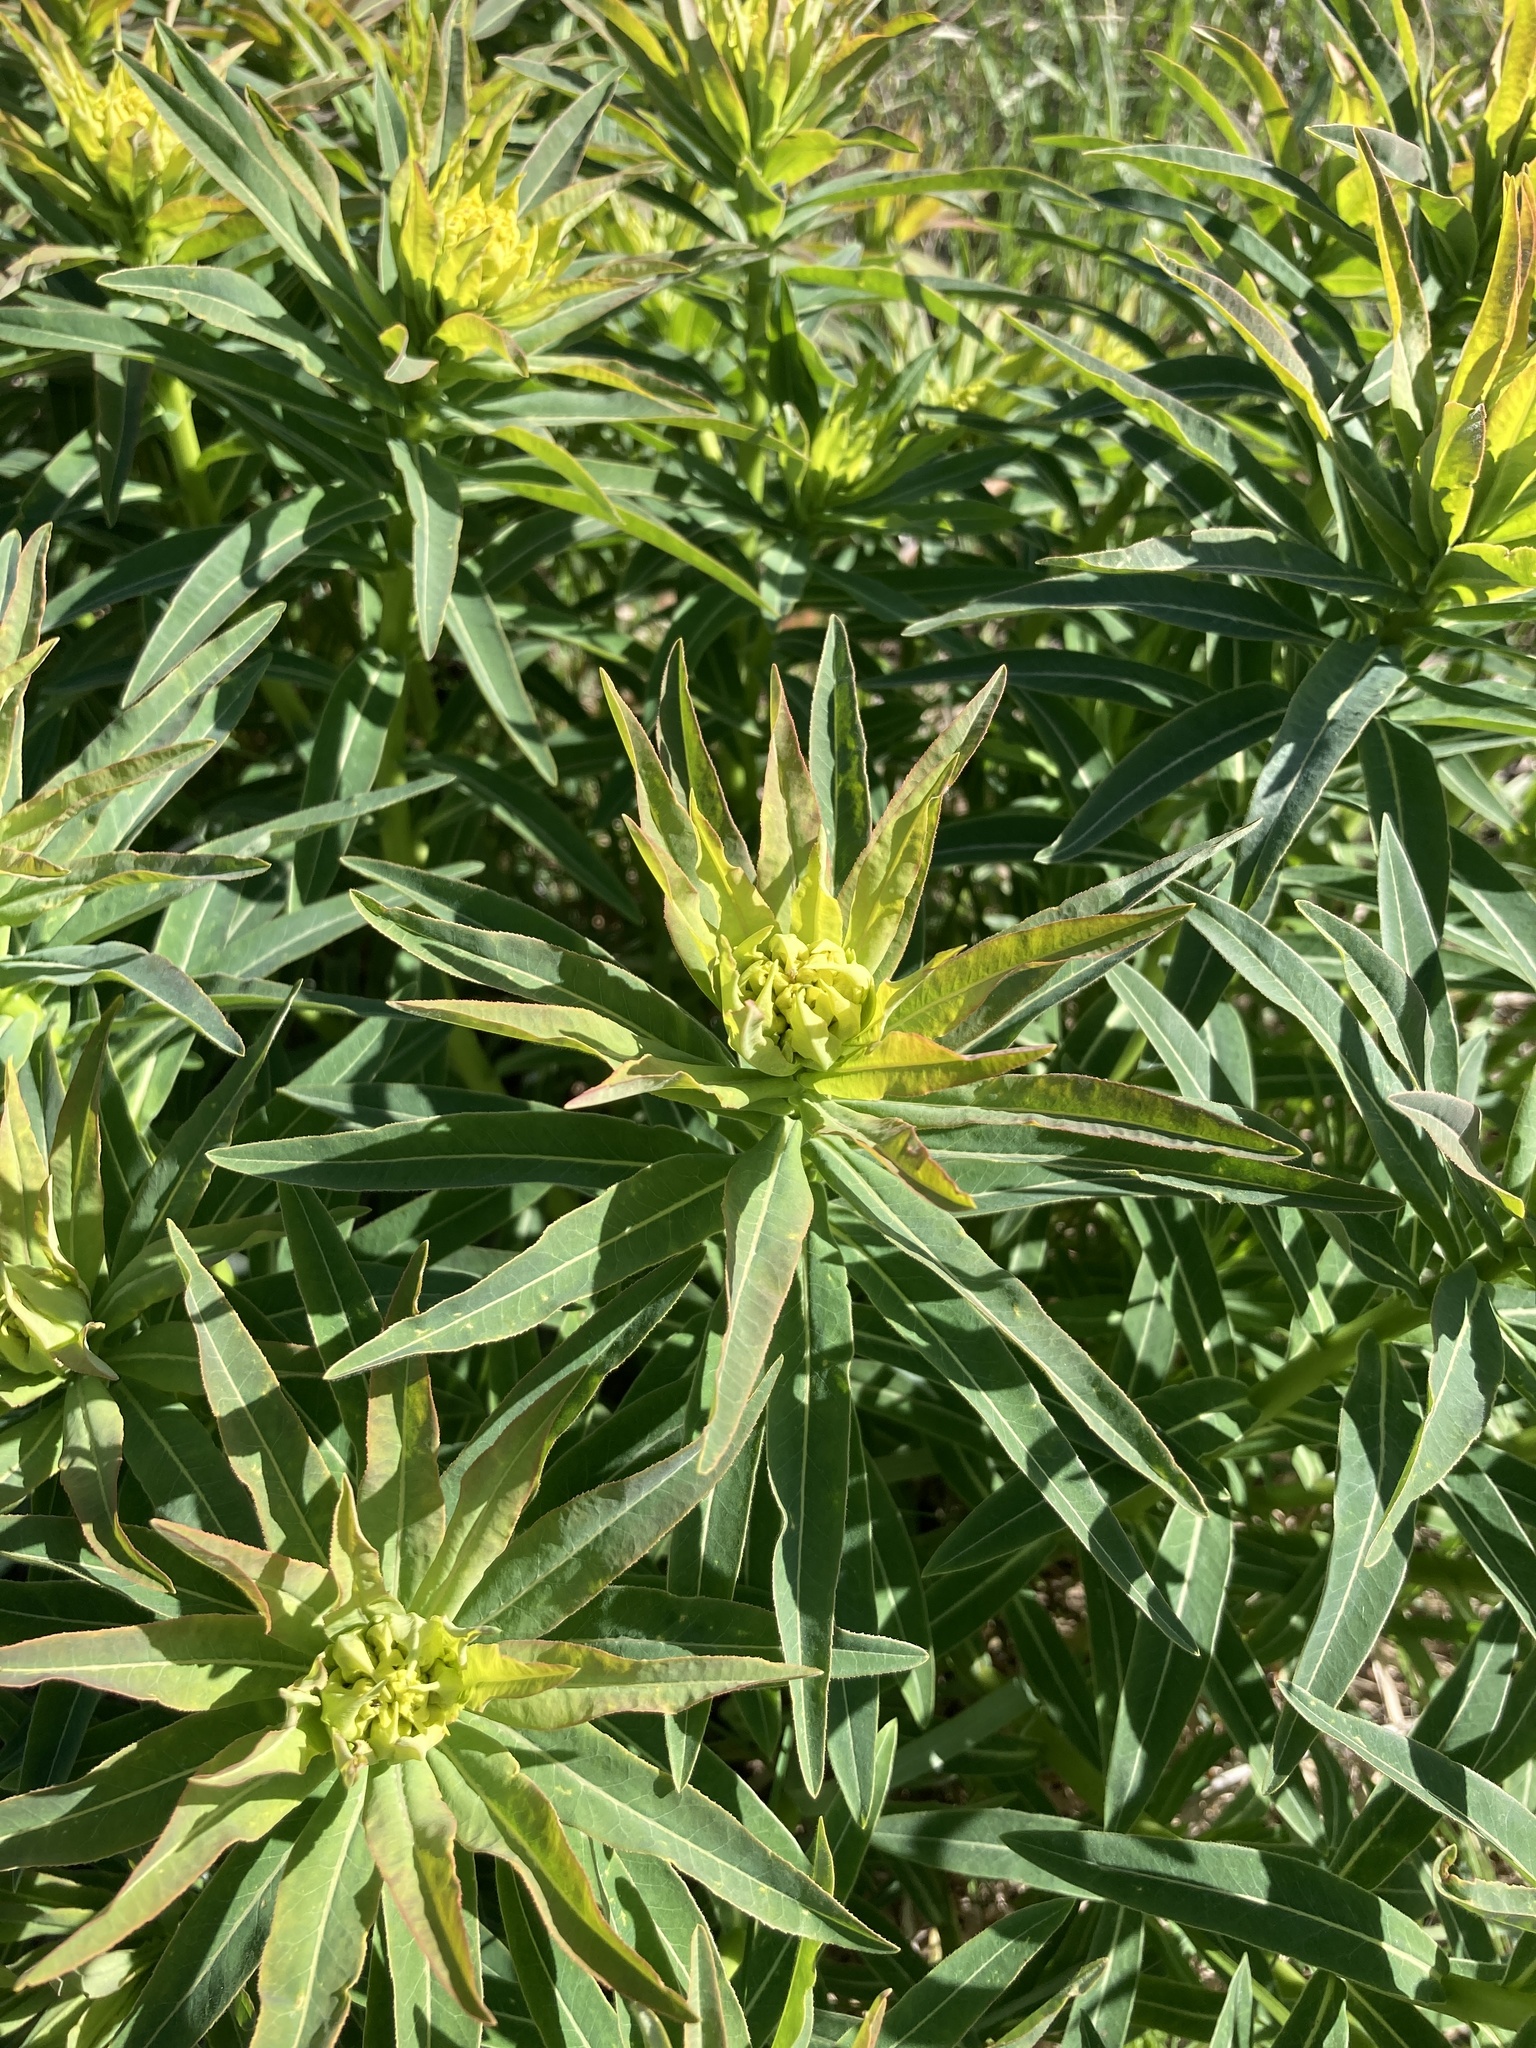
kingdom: Plantae
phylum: Tracheophyta
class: Magnoliopsida
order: Malpighiales
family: Euphorbiaceae
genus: Euphorbia
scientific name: Euphorbia semivillosa
